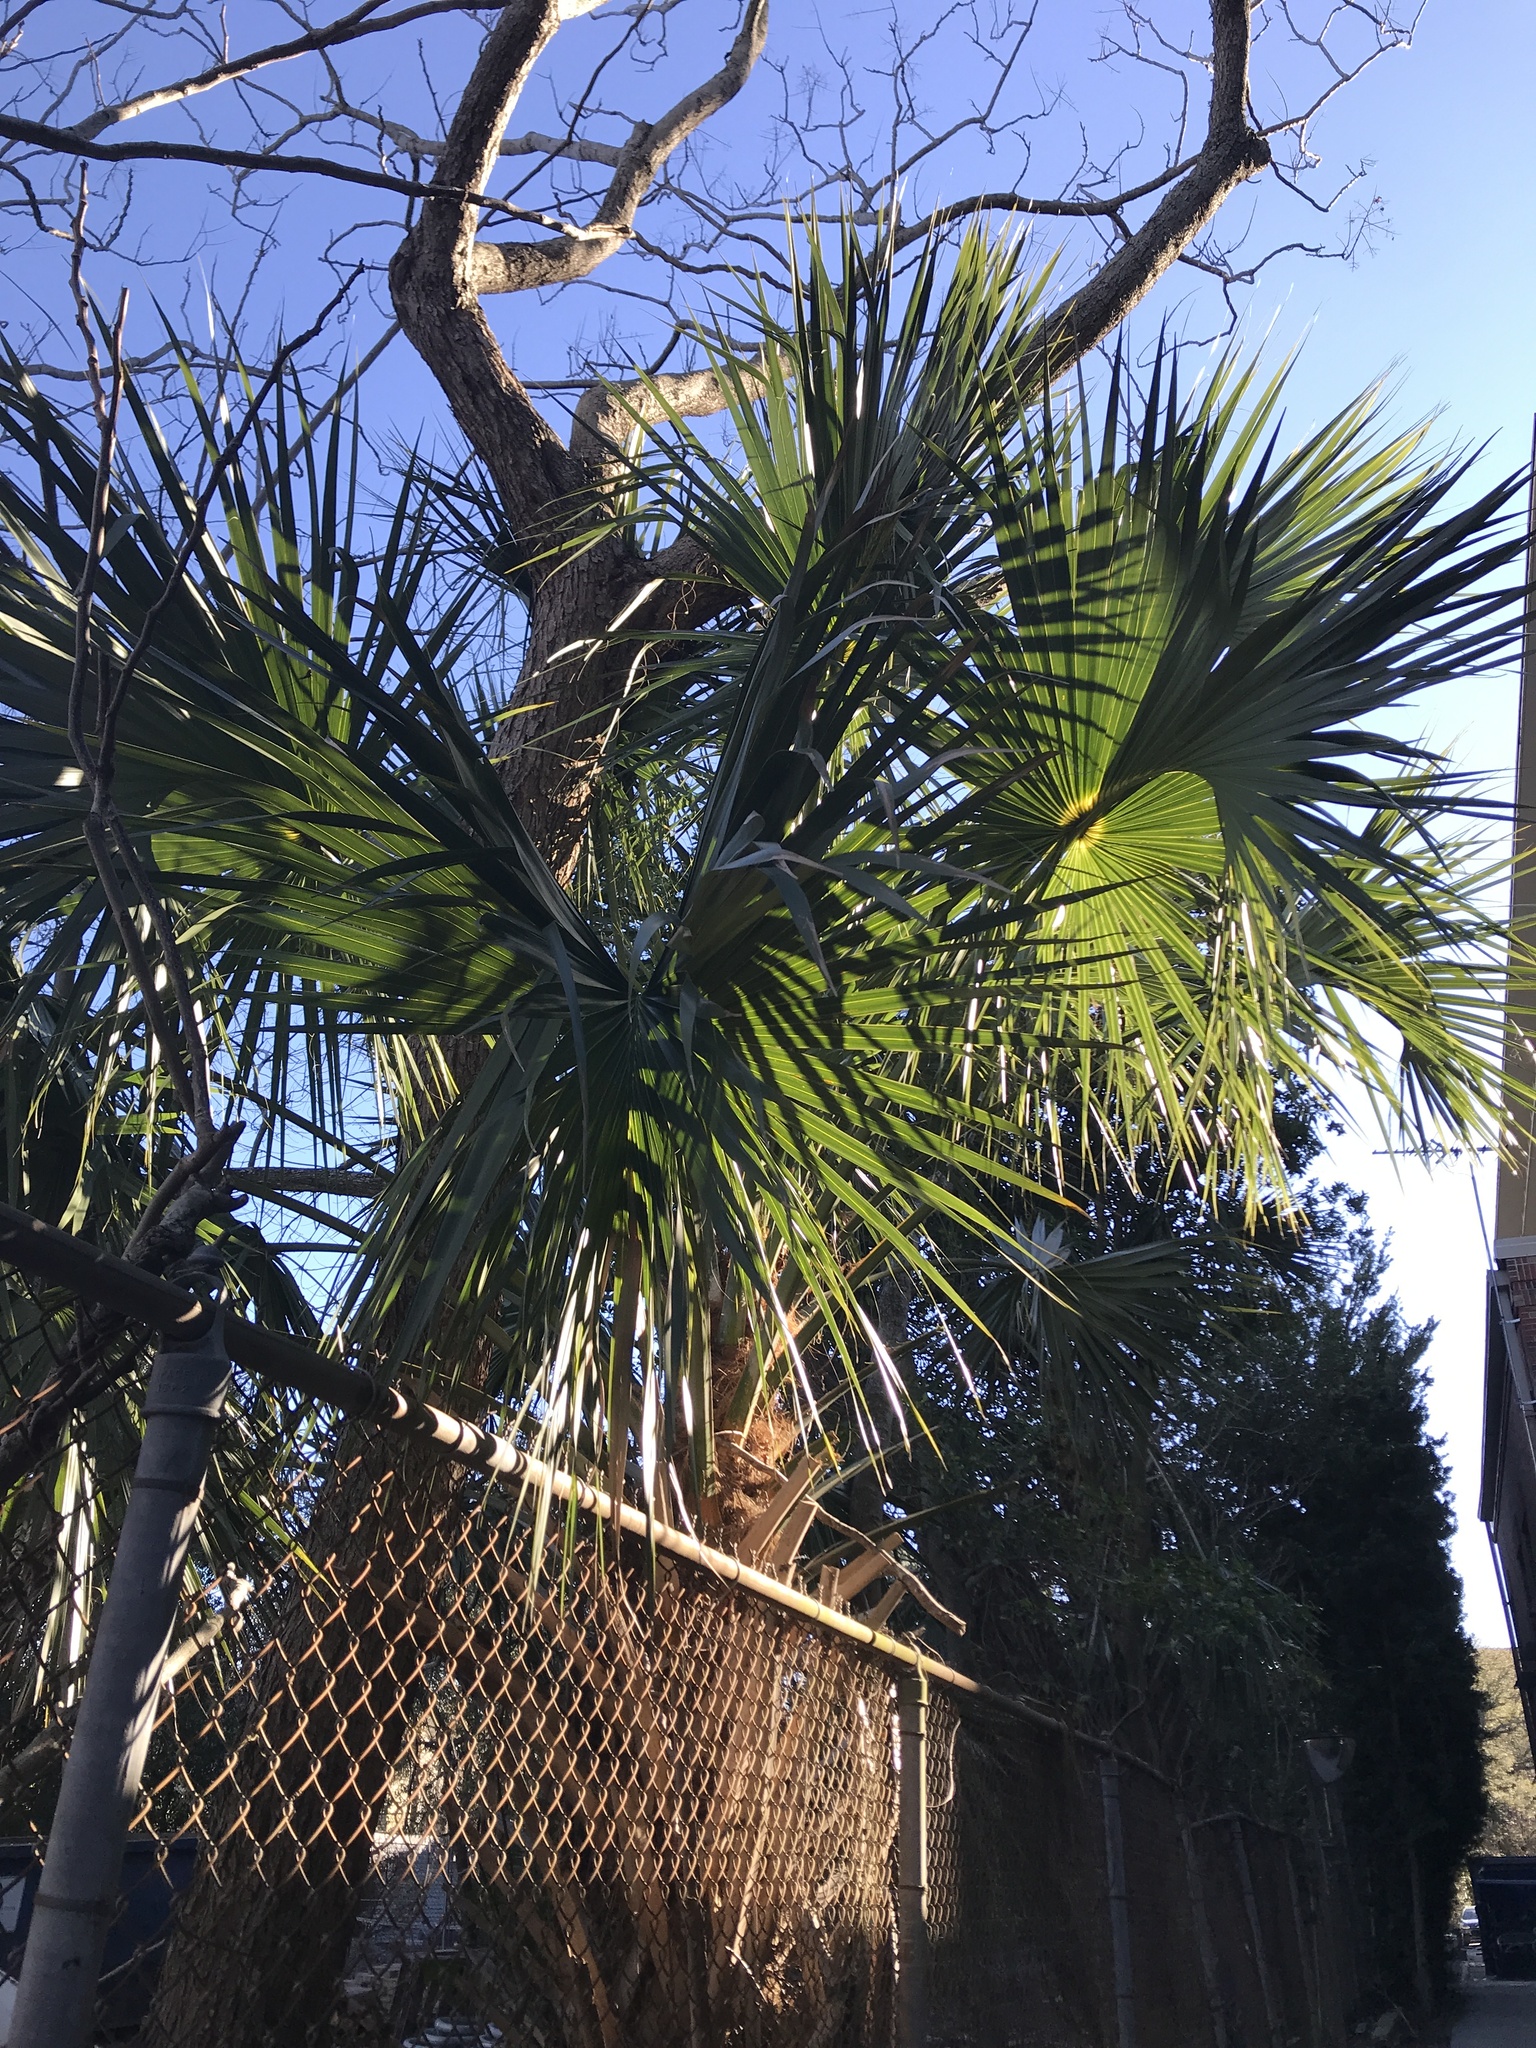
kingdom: Plantae
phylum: Tracheophyta
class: Liliopsida
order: Arecales
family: Arecaceae
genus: Sabal
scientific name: Sabal palmetto
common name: Blue palmetto
